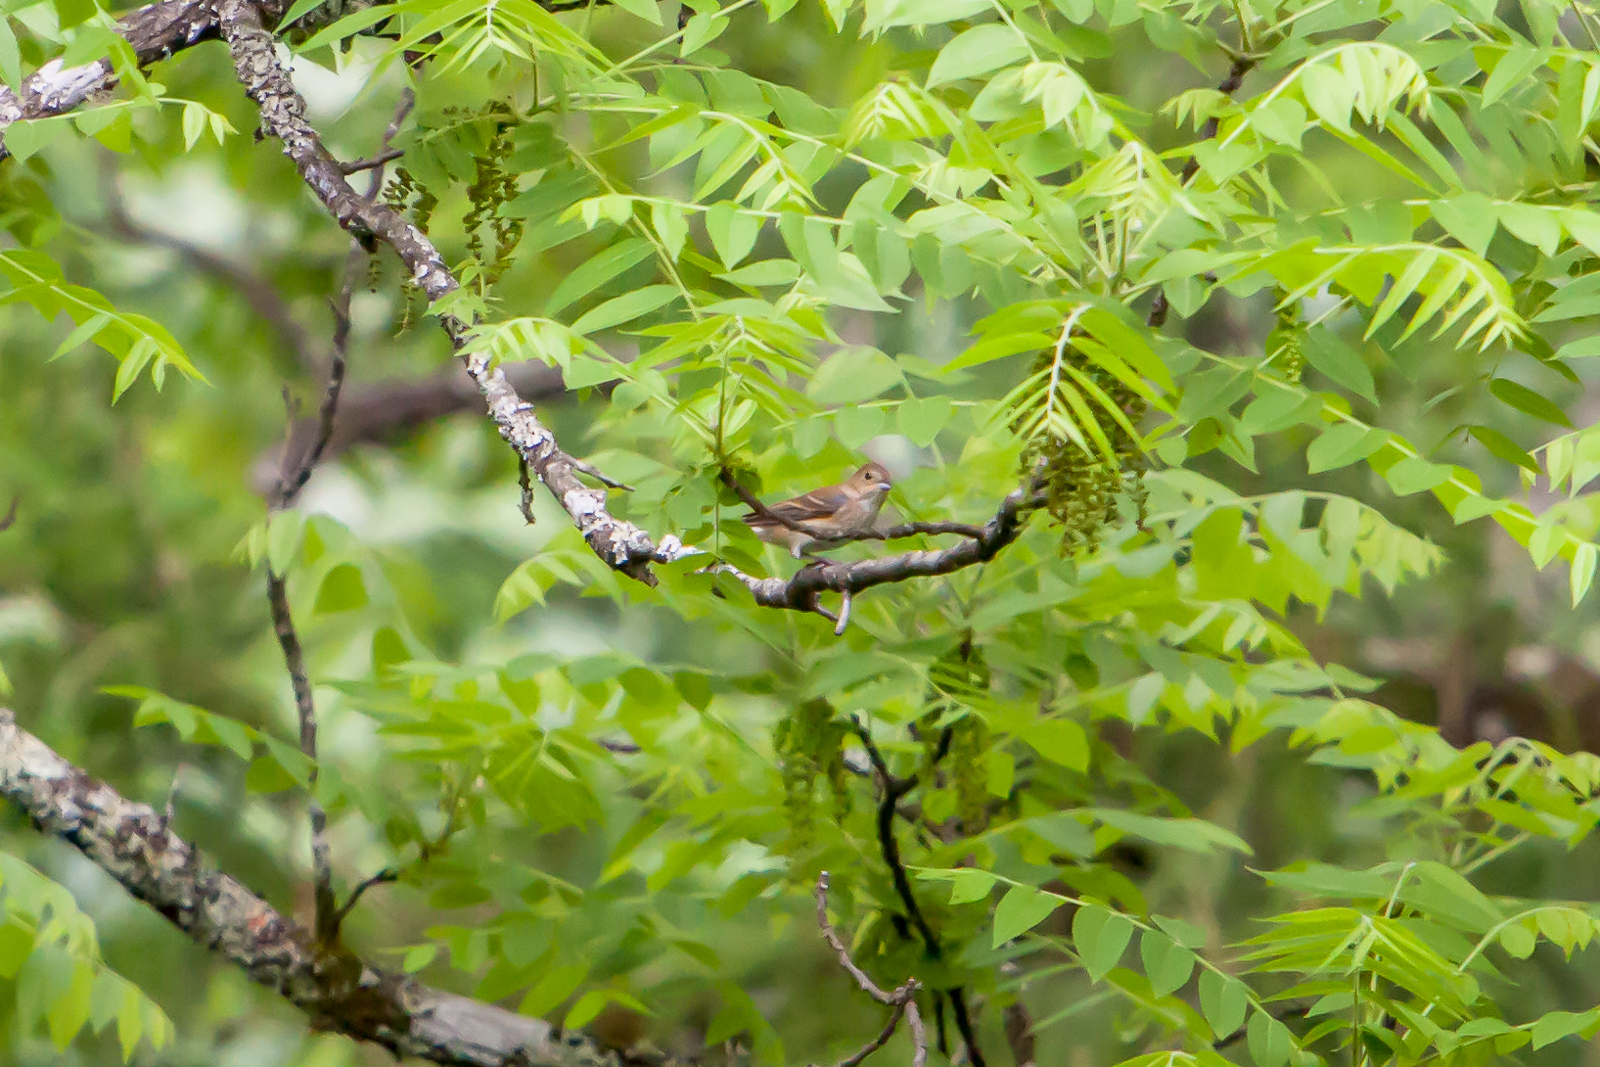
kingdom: Animalia
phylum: Chordata
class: Aves
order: Passeriformes
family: Cardinalidae
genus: Passerina
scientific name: Passerina cyanea
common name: Indigo bunting
